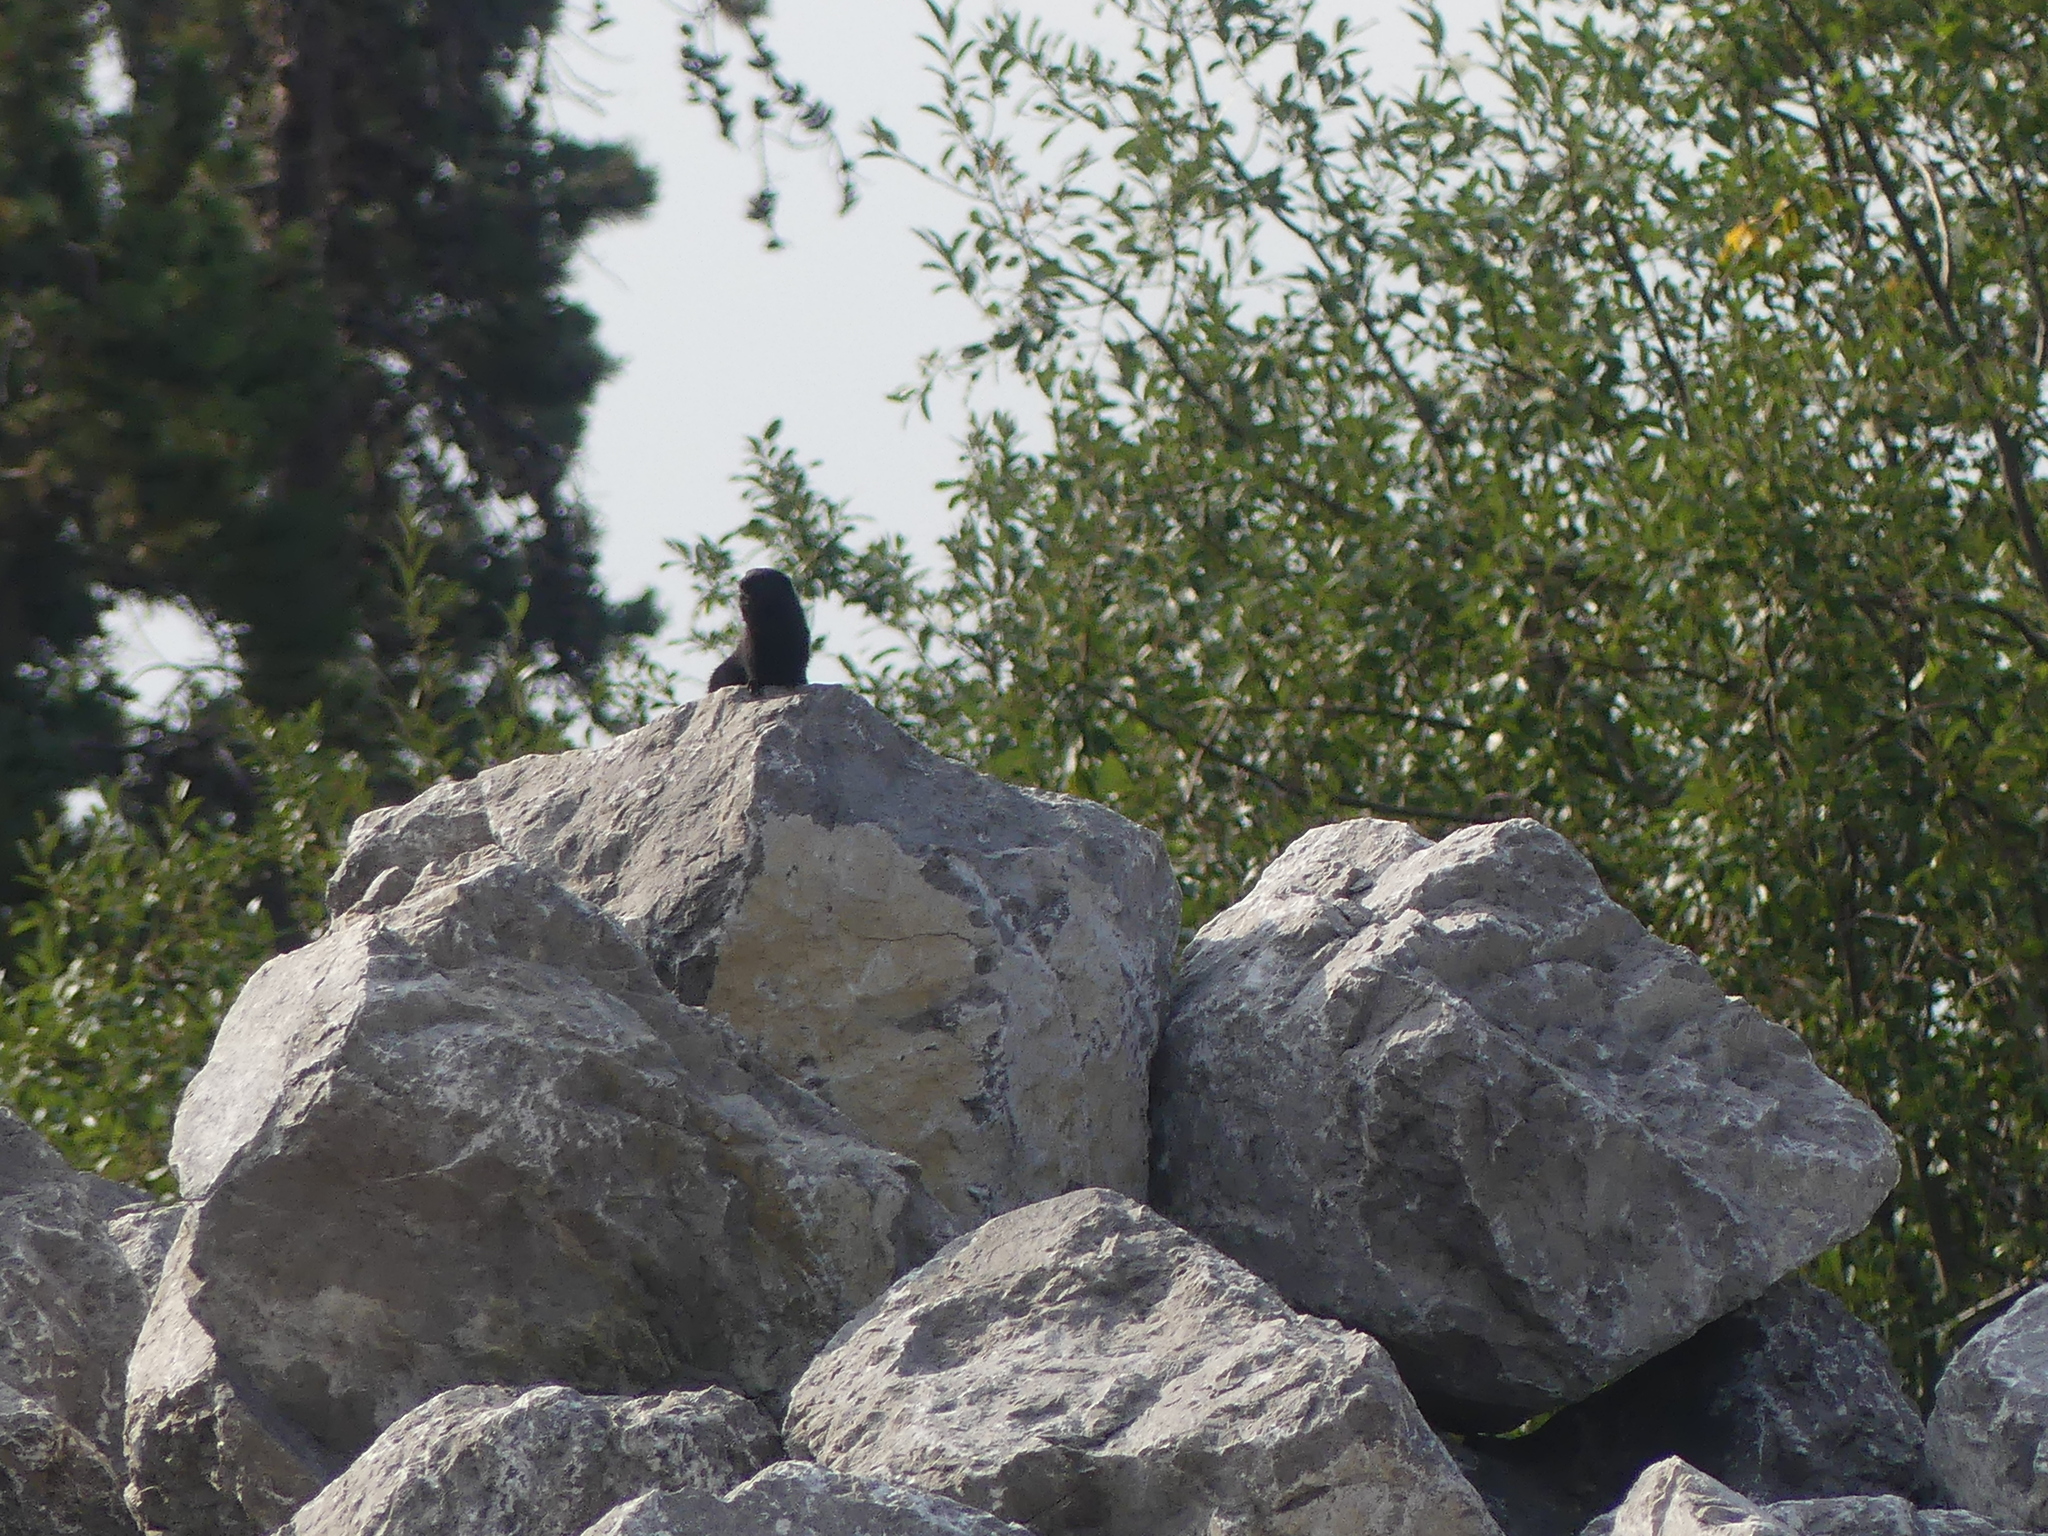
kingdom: Animalia
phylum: Chordata
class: Mammalia
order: Rodentia
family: Sciuridae
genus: Urocitellus
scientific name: Urocitellus parryii
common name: Arctic ground squirrel
